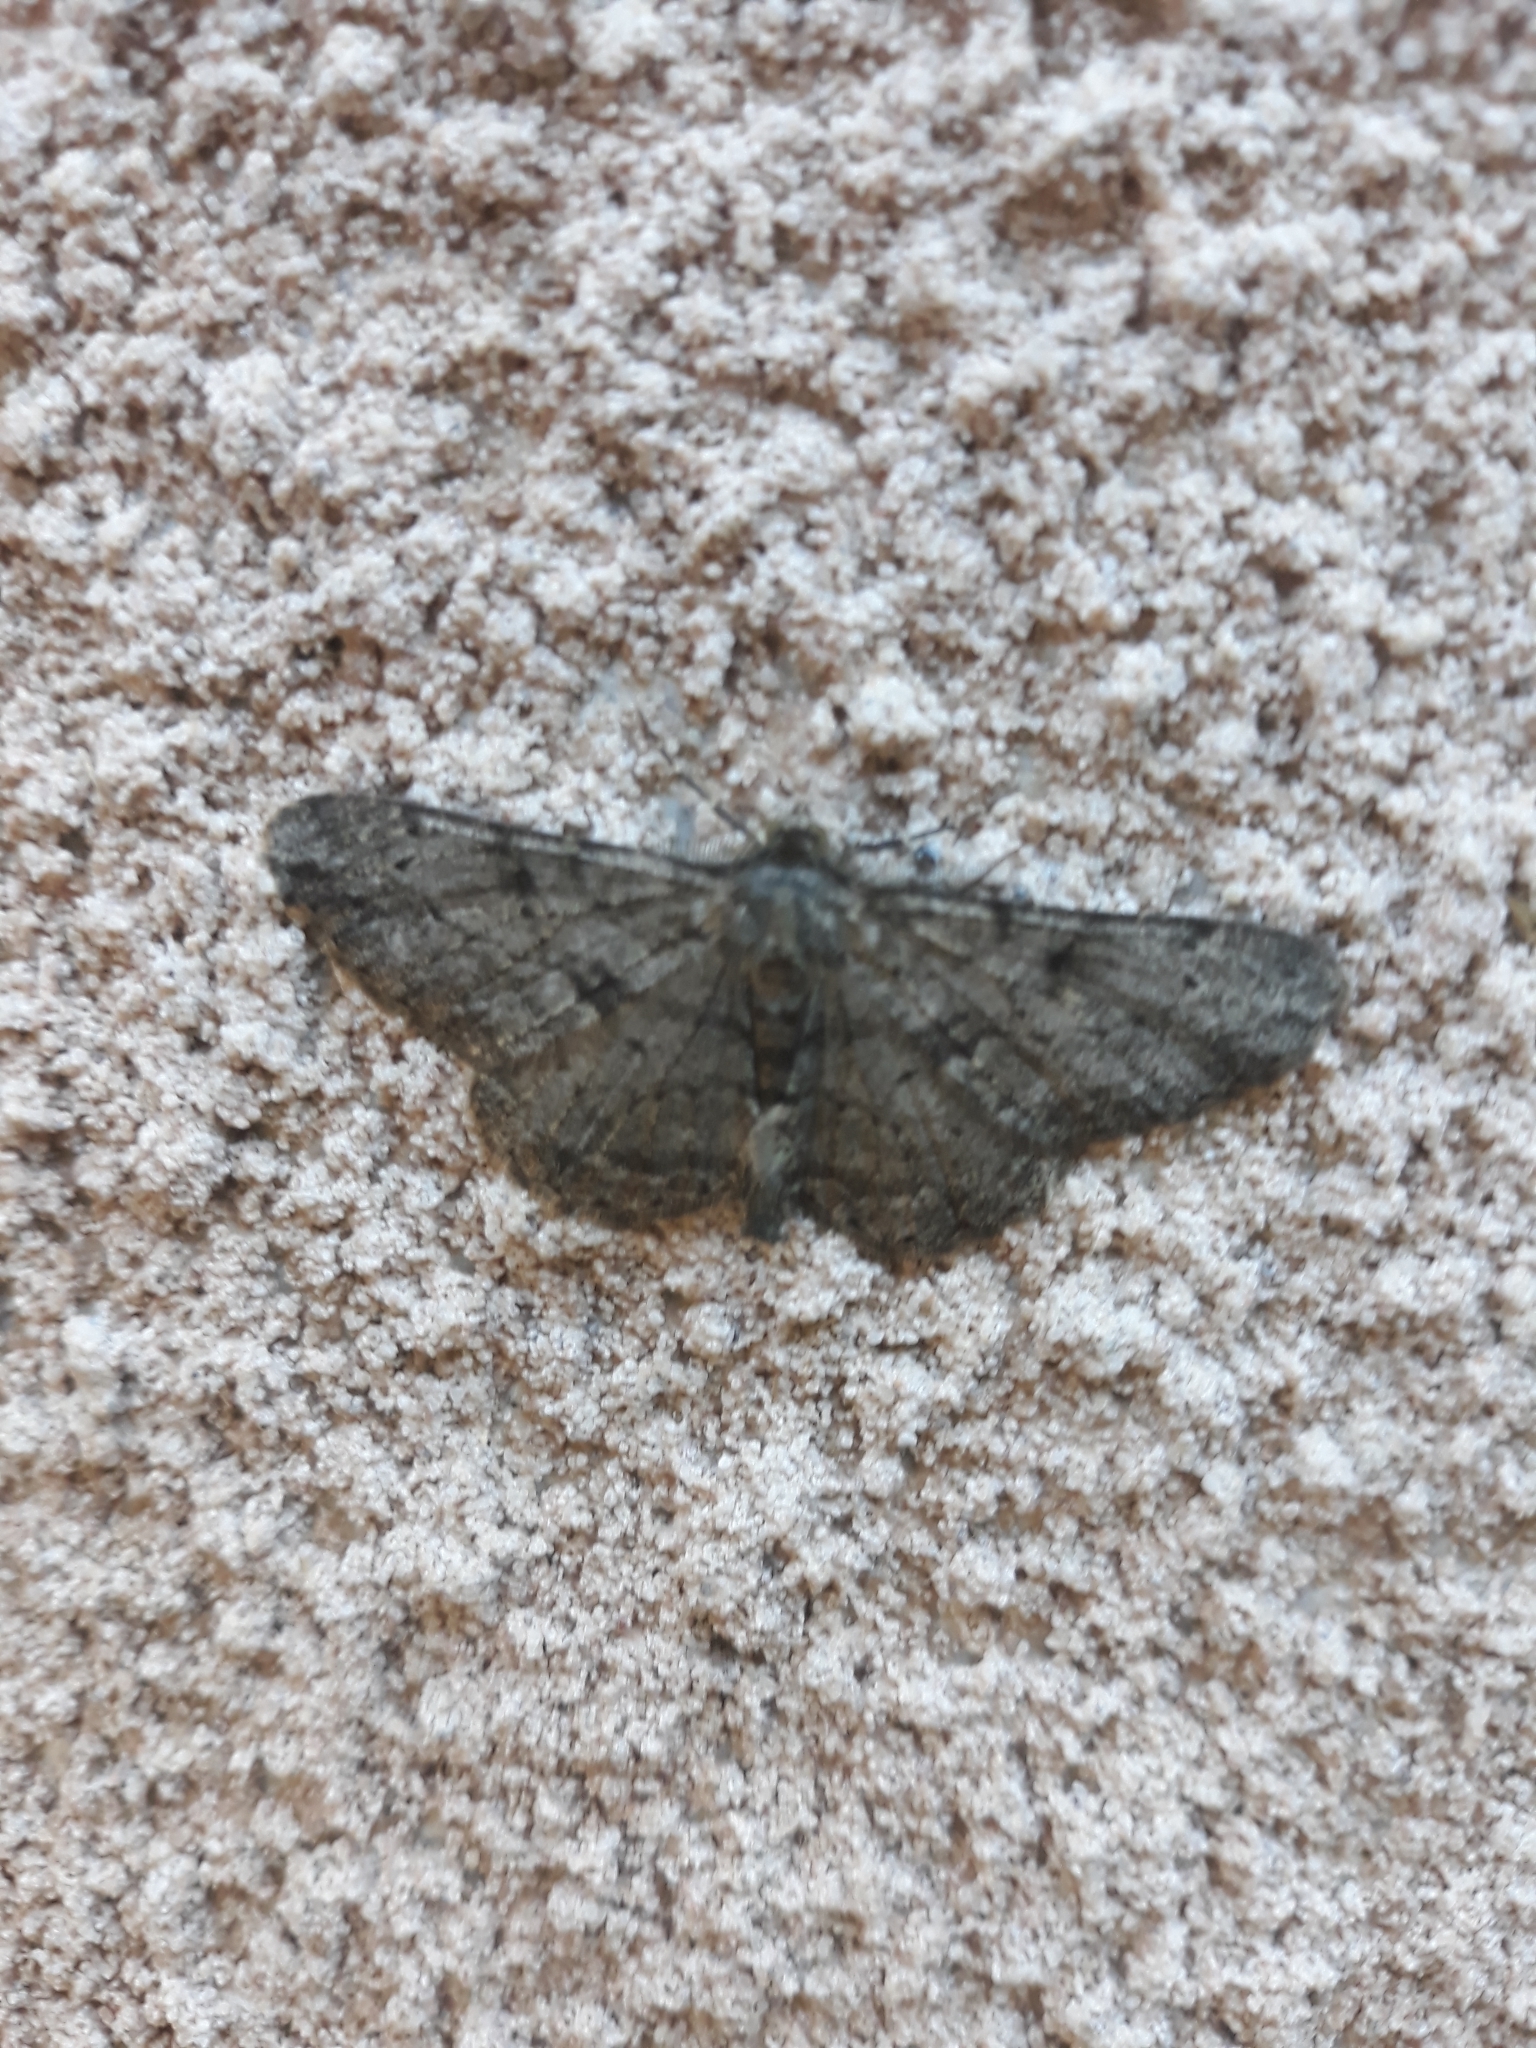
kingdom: Animalia
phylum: Arthropoda
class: Insecta
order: Lepidoptera
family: Geometridae
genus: Peribatodes
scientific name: Peribatodes rhomboidaria
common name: Willow beauty
